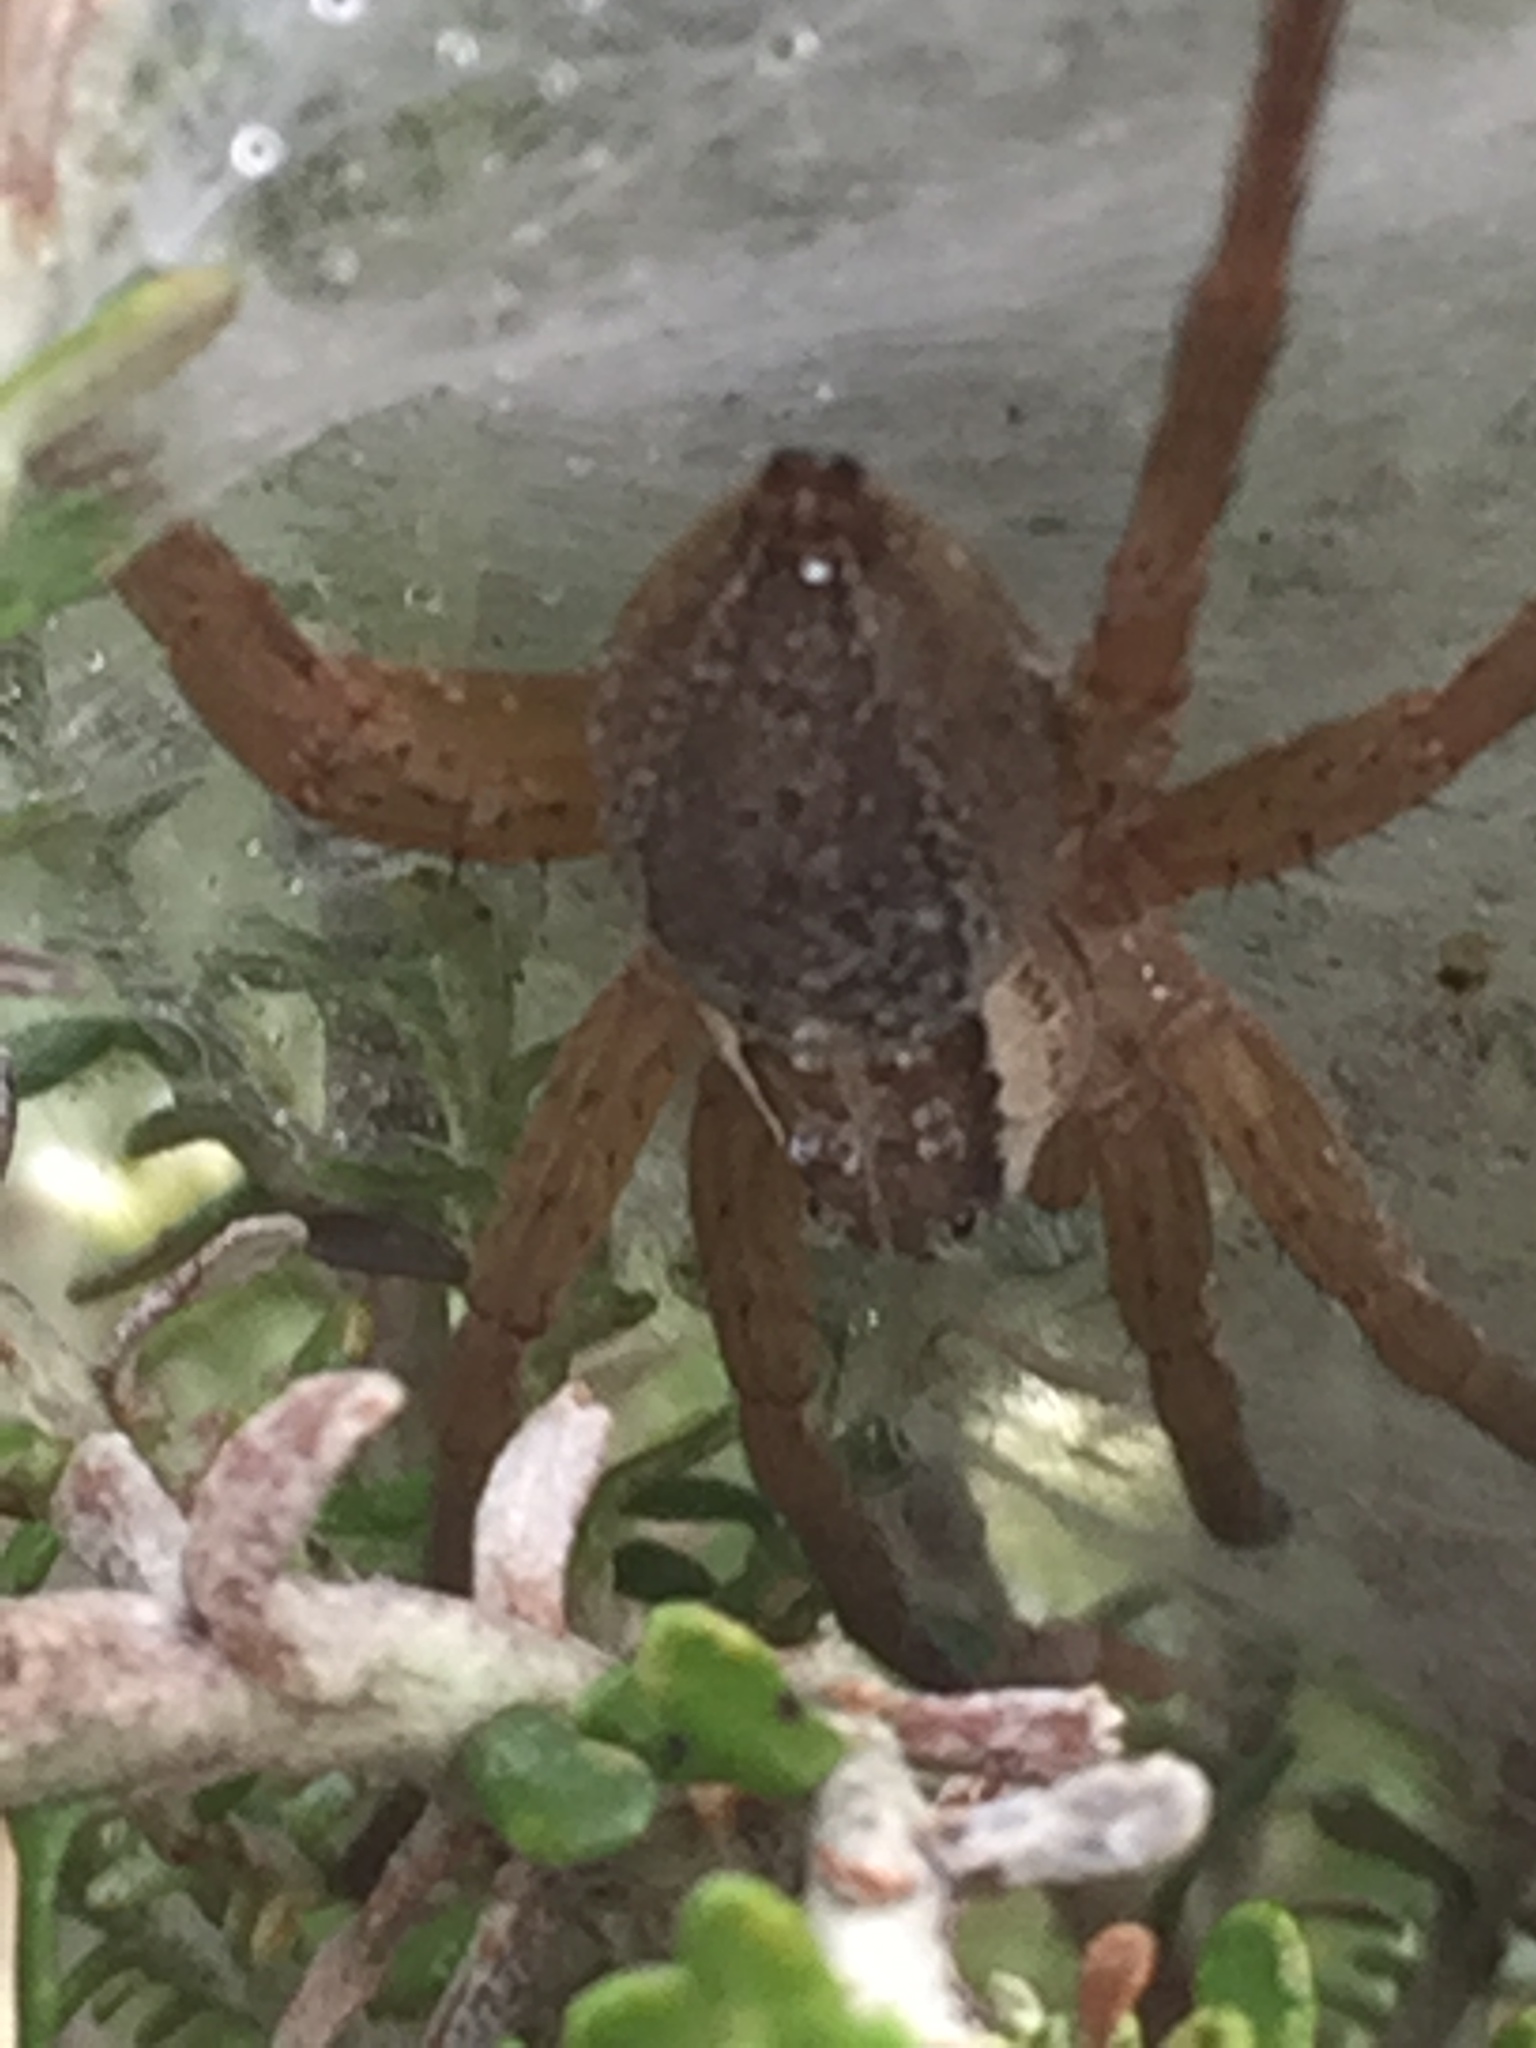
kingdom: Animalia
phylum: Arthropoda
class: Arachnida
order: Araneae
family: Pisauridae
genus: Dolomedes
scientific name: Dolomedes minor
